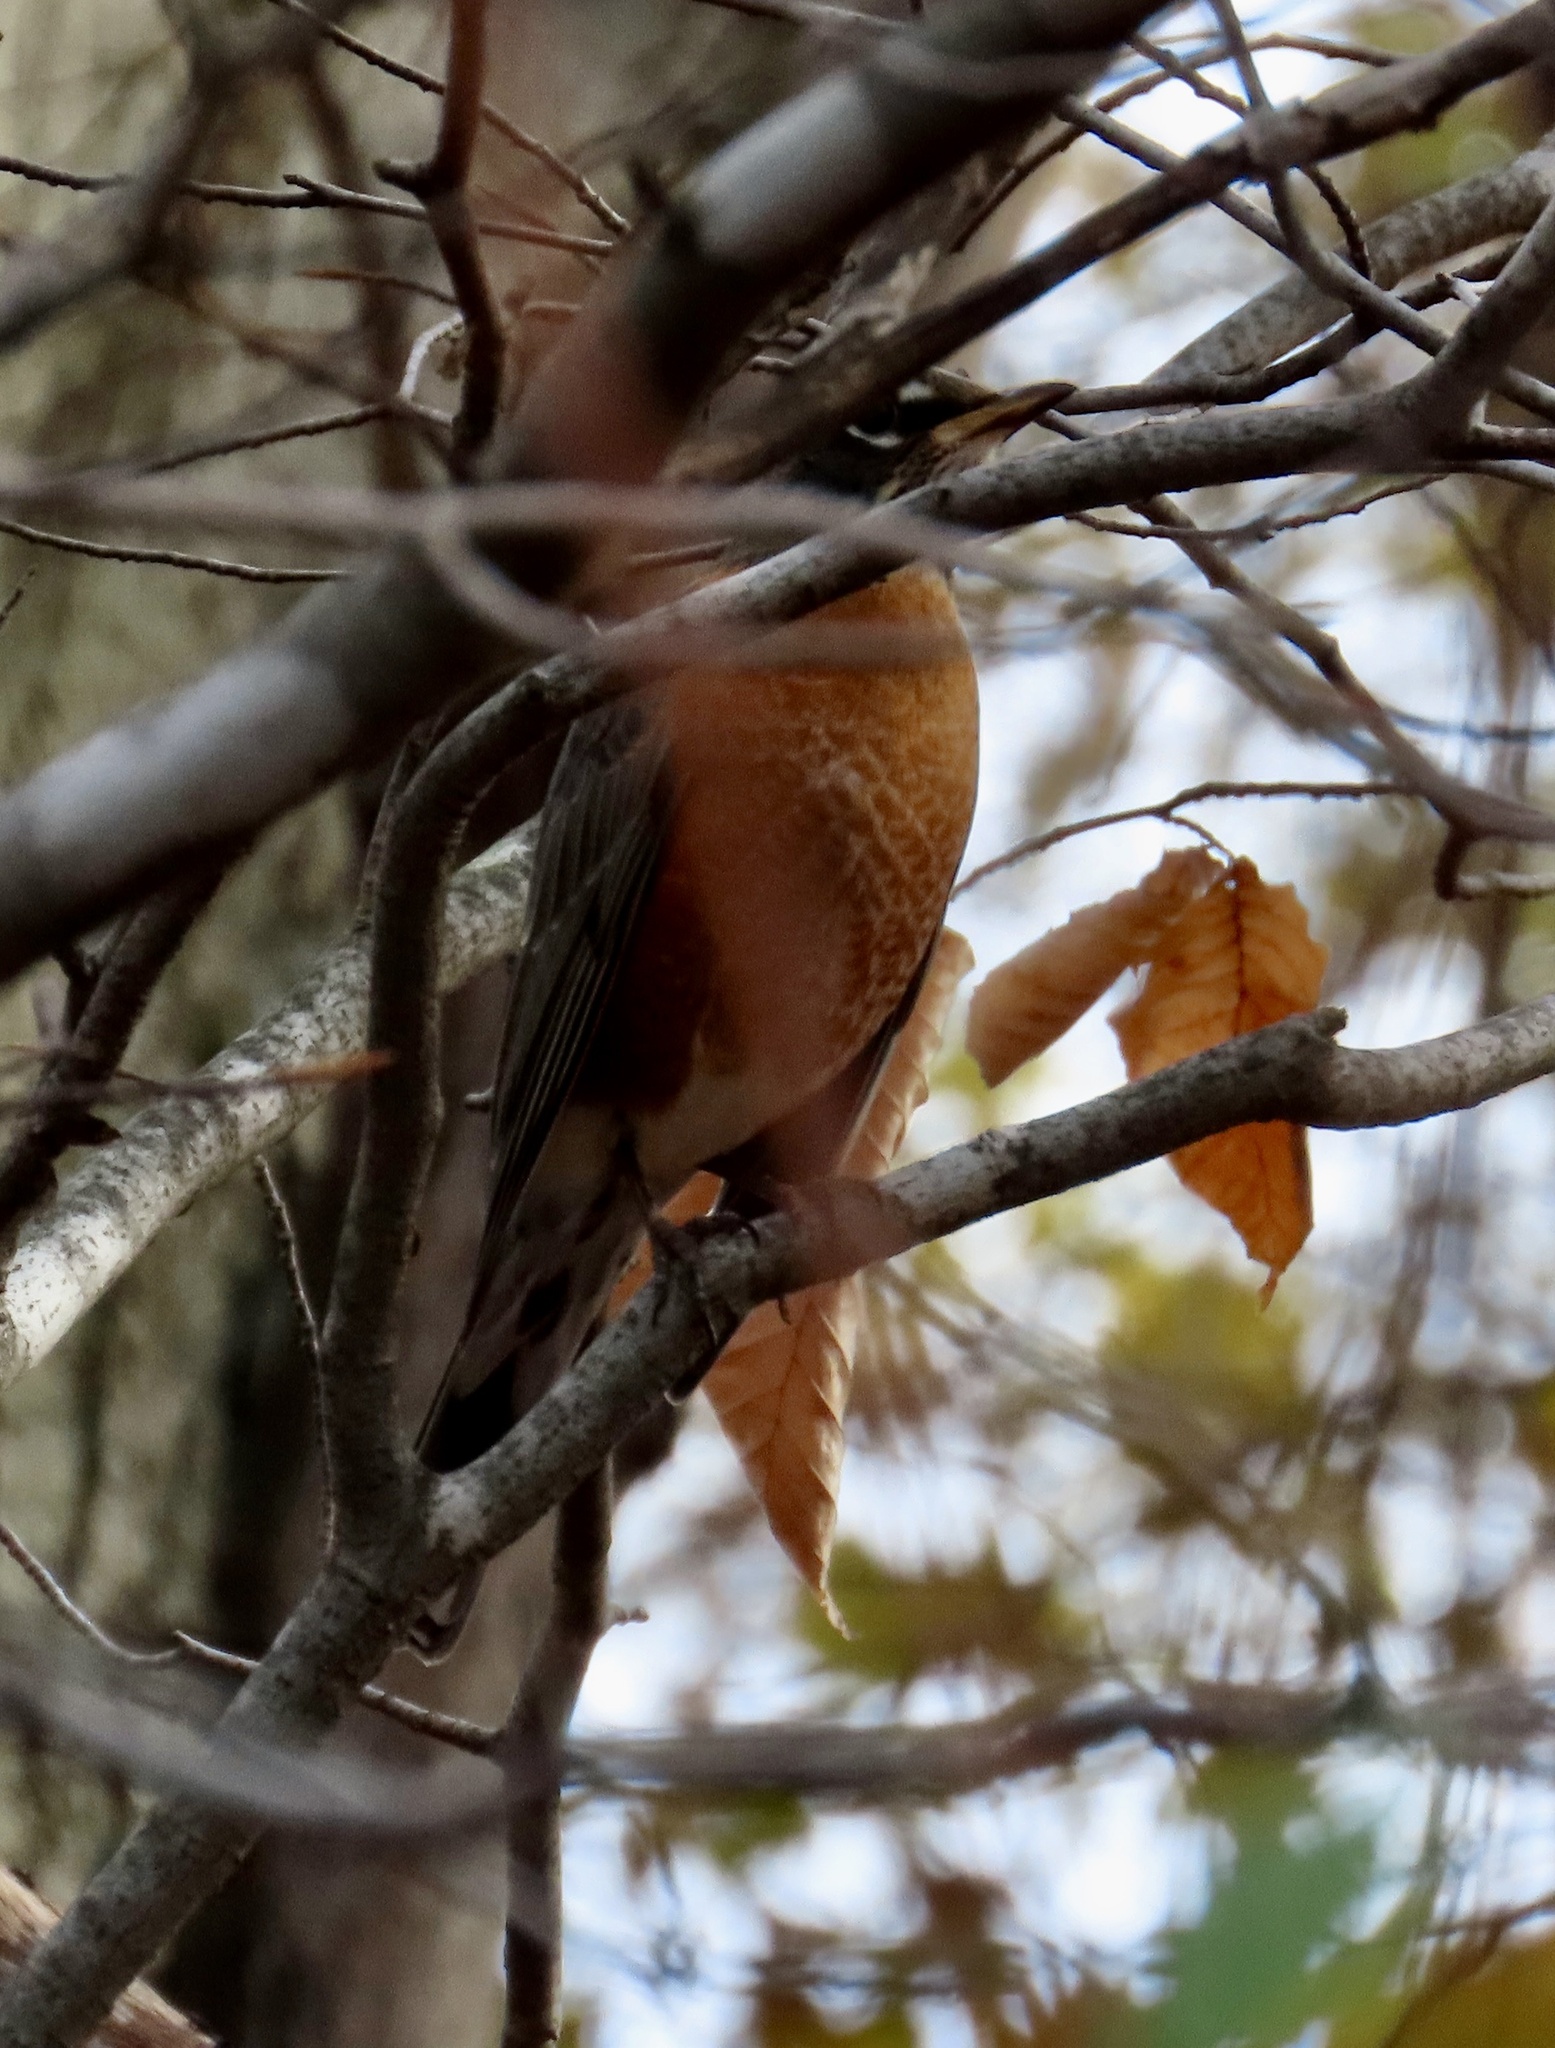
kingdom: Animalia
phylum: Chordata
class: Aves
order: Passeriformes
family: Turdidae
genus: Turdus
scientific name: Turdus migratorius
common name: American robin
